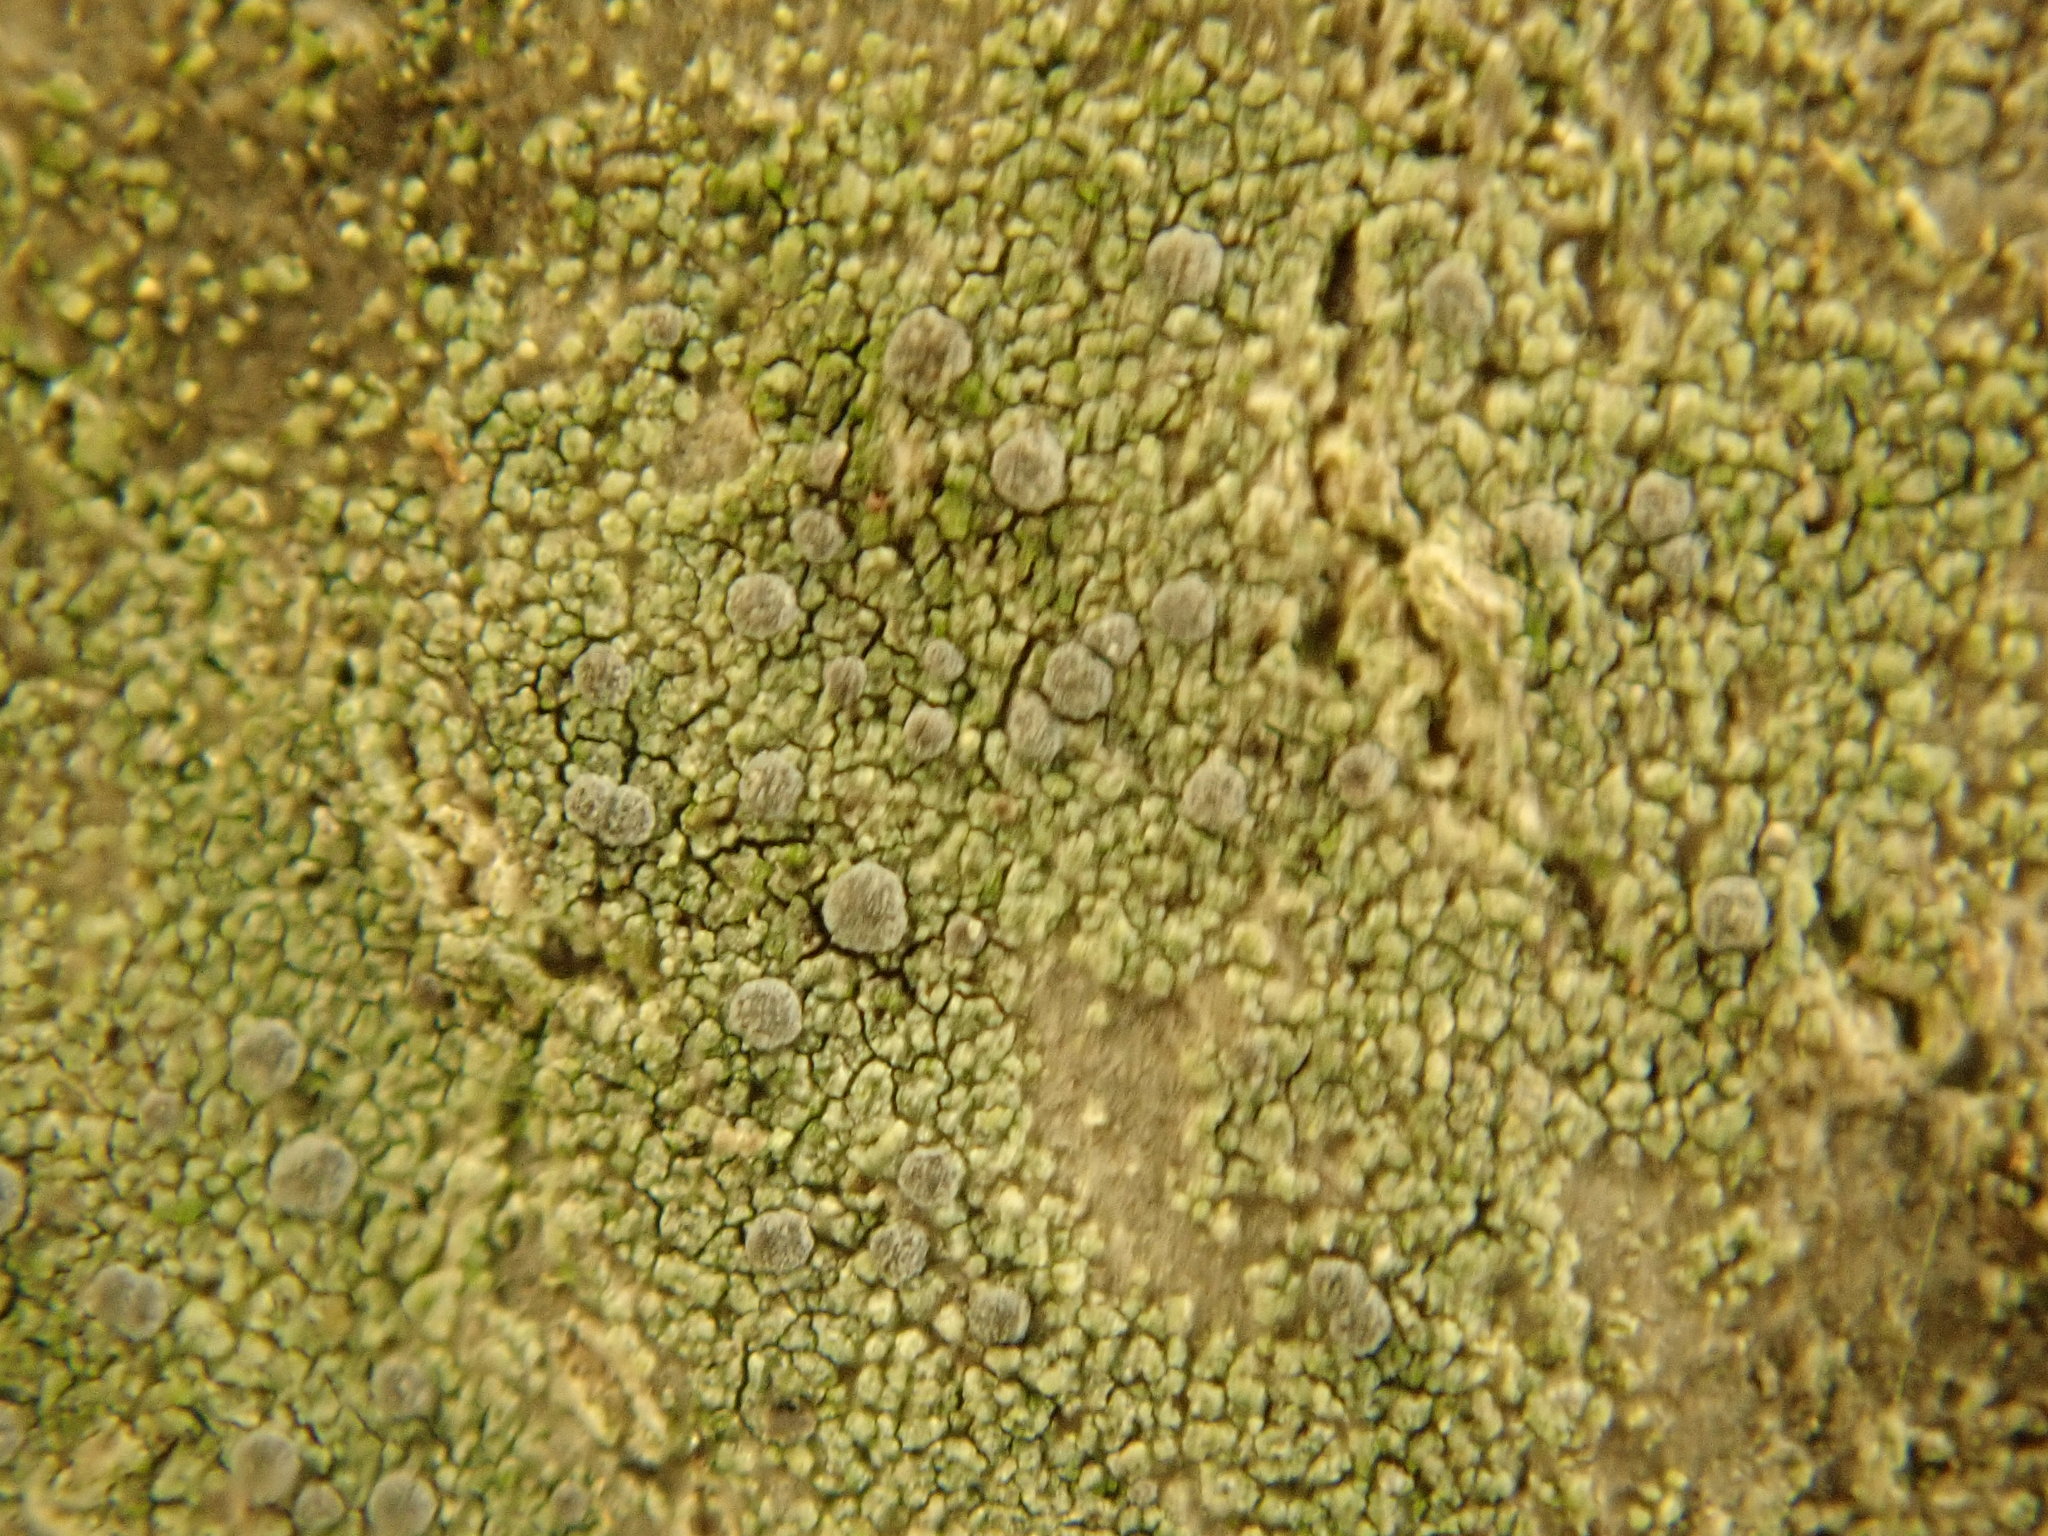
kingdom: Fungi
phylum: Ascomycota
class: Arthoniomycetes
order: Arthoniales
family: Chrysotrichaceae
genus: Chrysothrix
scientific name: Chrysothrix caesia
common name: Frosted comma lichen
